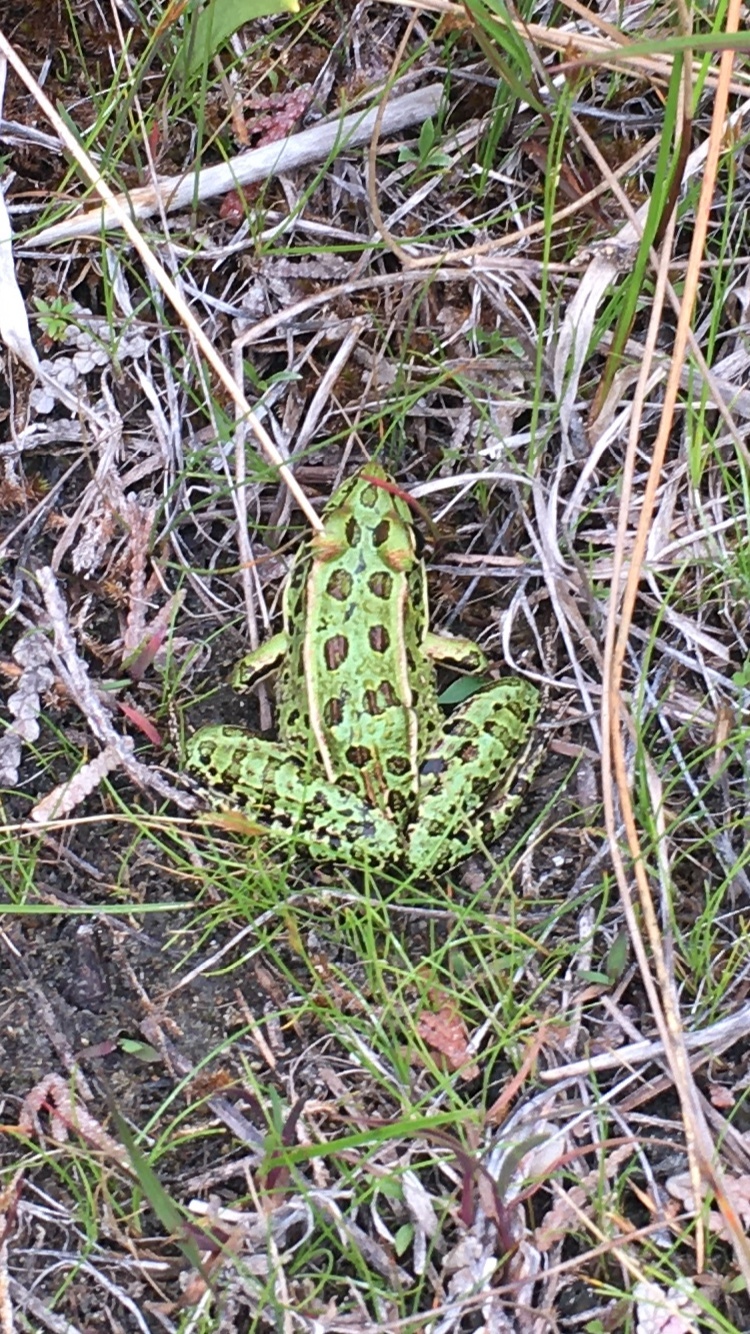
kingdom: Animalia
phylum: Chordata
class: Amphibia
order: Anura
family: Ranidae
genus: Lithobates
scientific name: Lithobates pipiens
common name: Northern leopard frog
